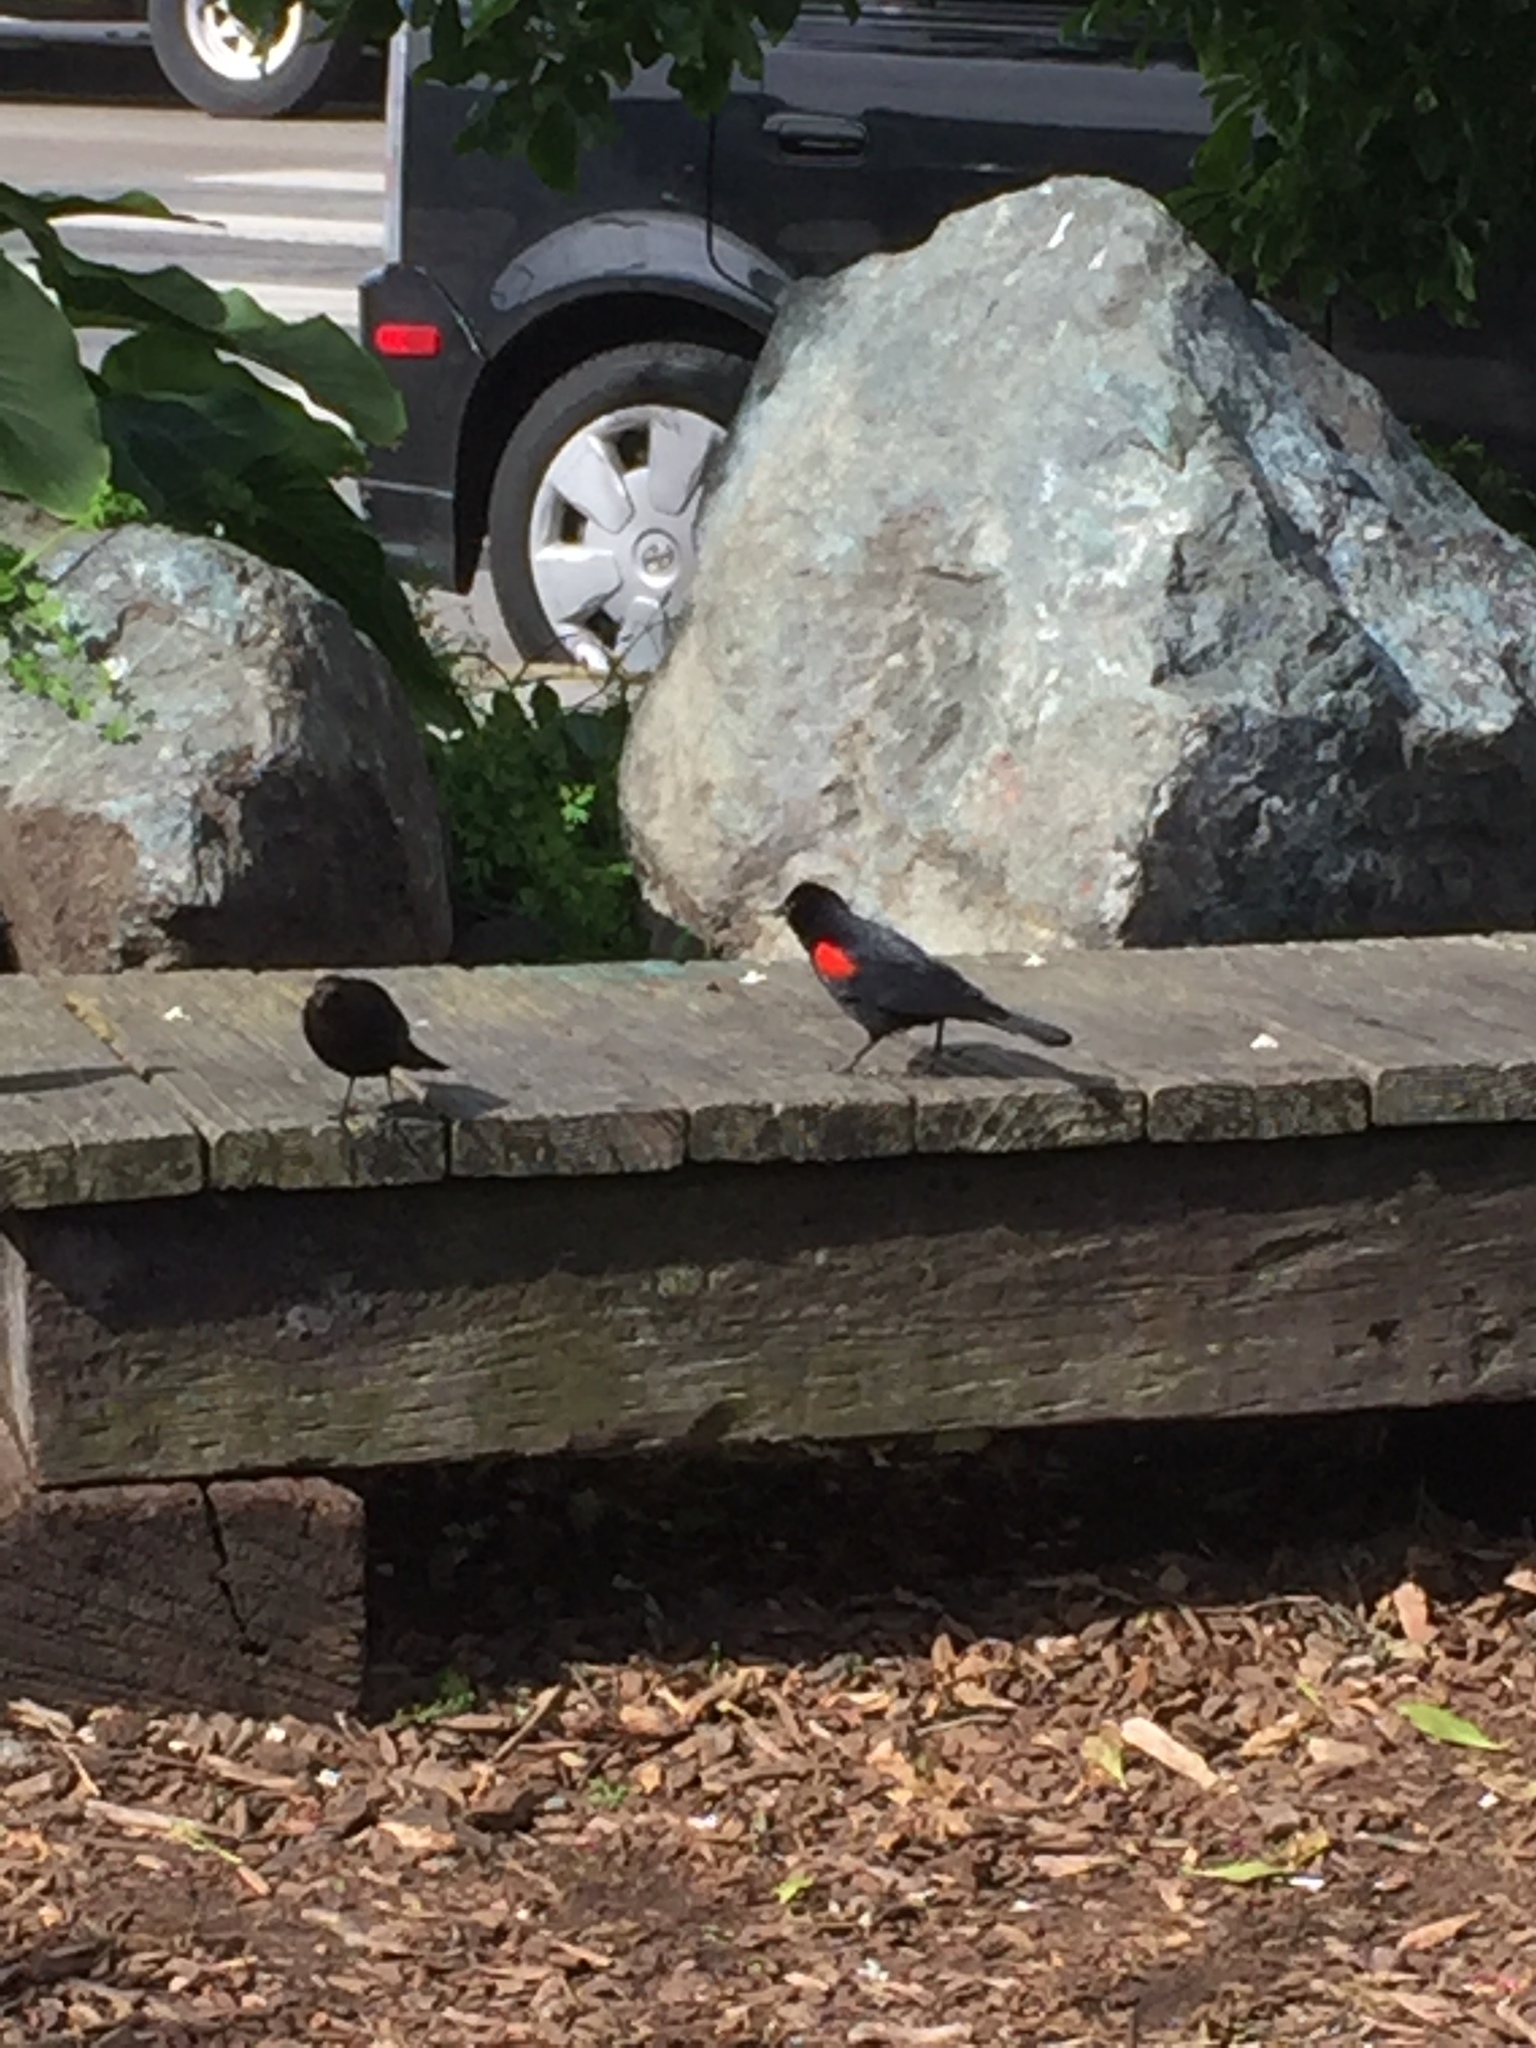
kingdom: Animalia
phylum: Chordata
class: Aves
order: Passeriformes
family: Icteridae
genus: Agelaius
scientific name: Agelaius phoeniceus
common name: Red-winged blackbird
